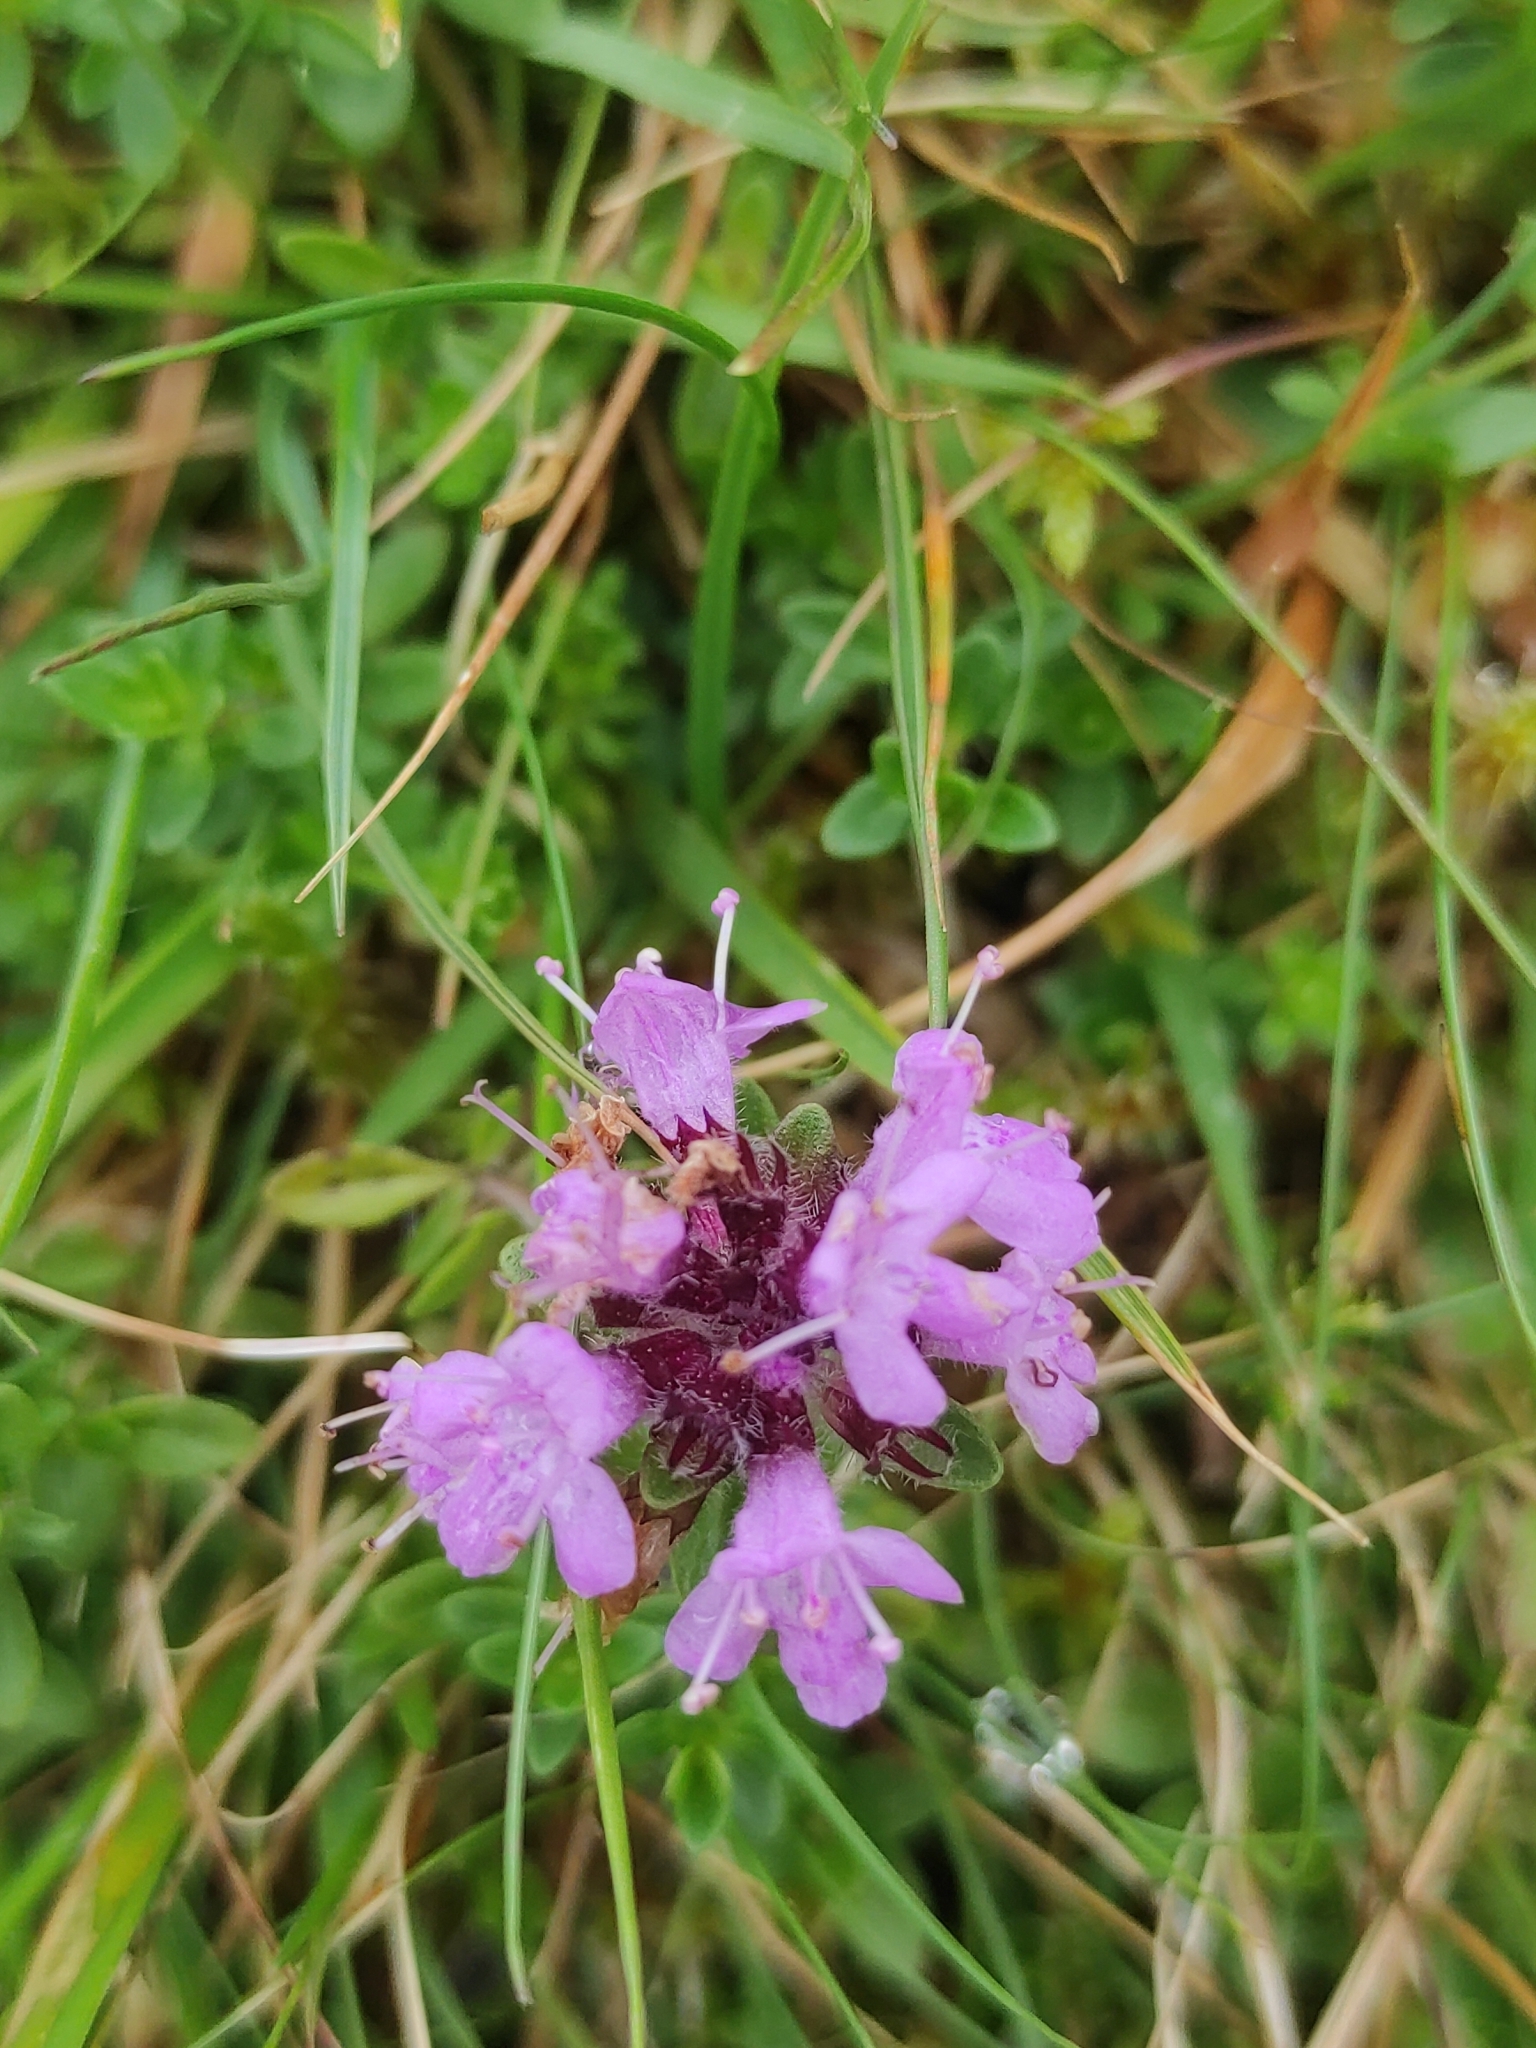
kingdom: Plantae
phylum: Tracheophyta
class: Magnoliopsida
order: Lamiales
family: Lamiaceae
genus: Thymus
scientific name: Thymus praecox
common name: Wild thyme
